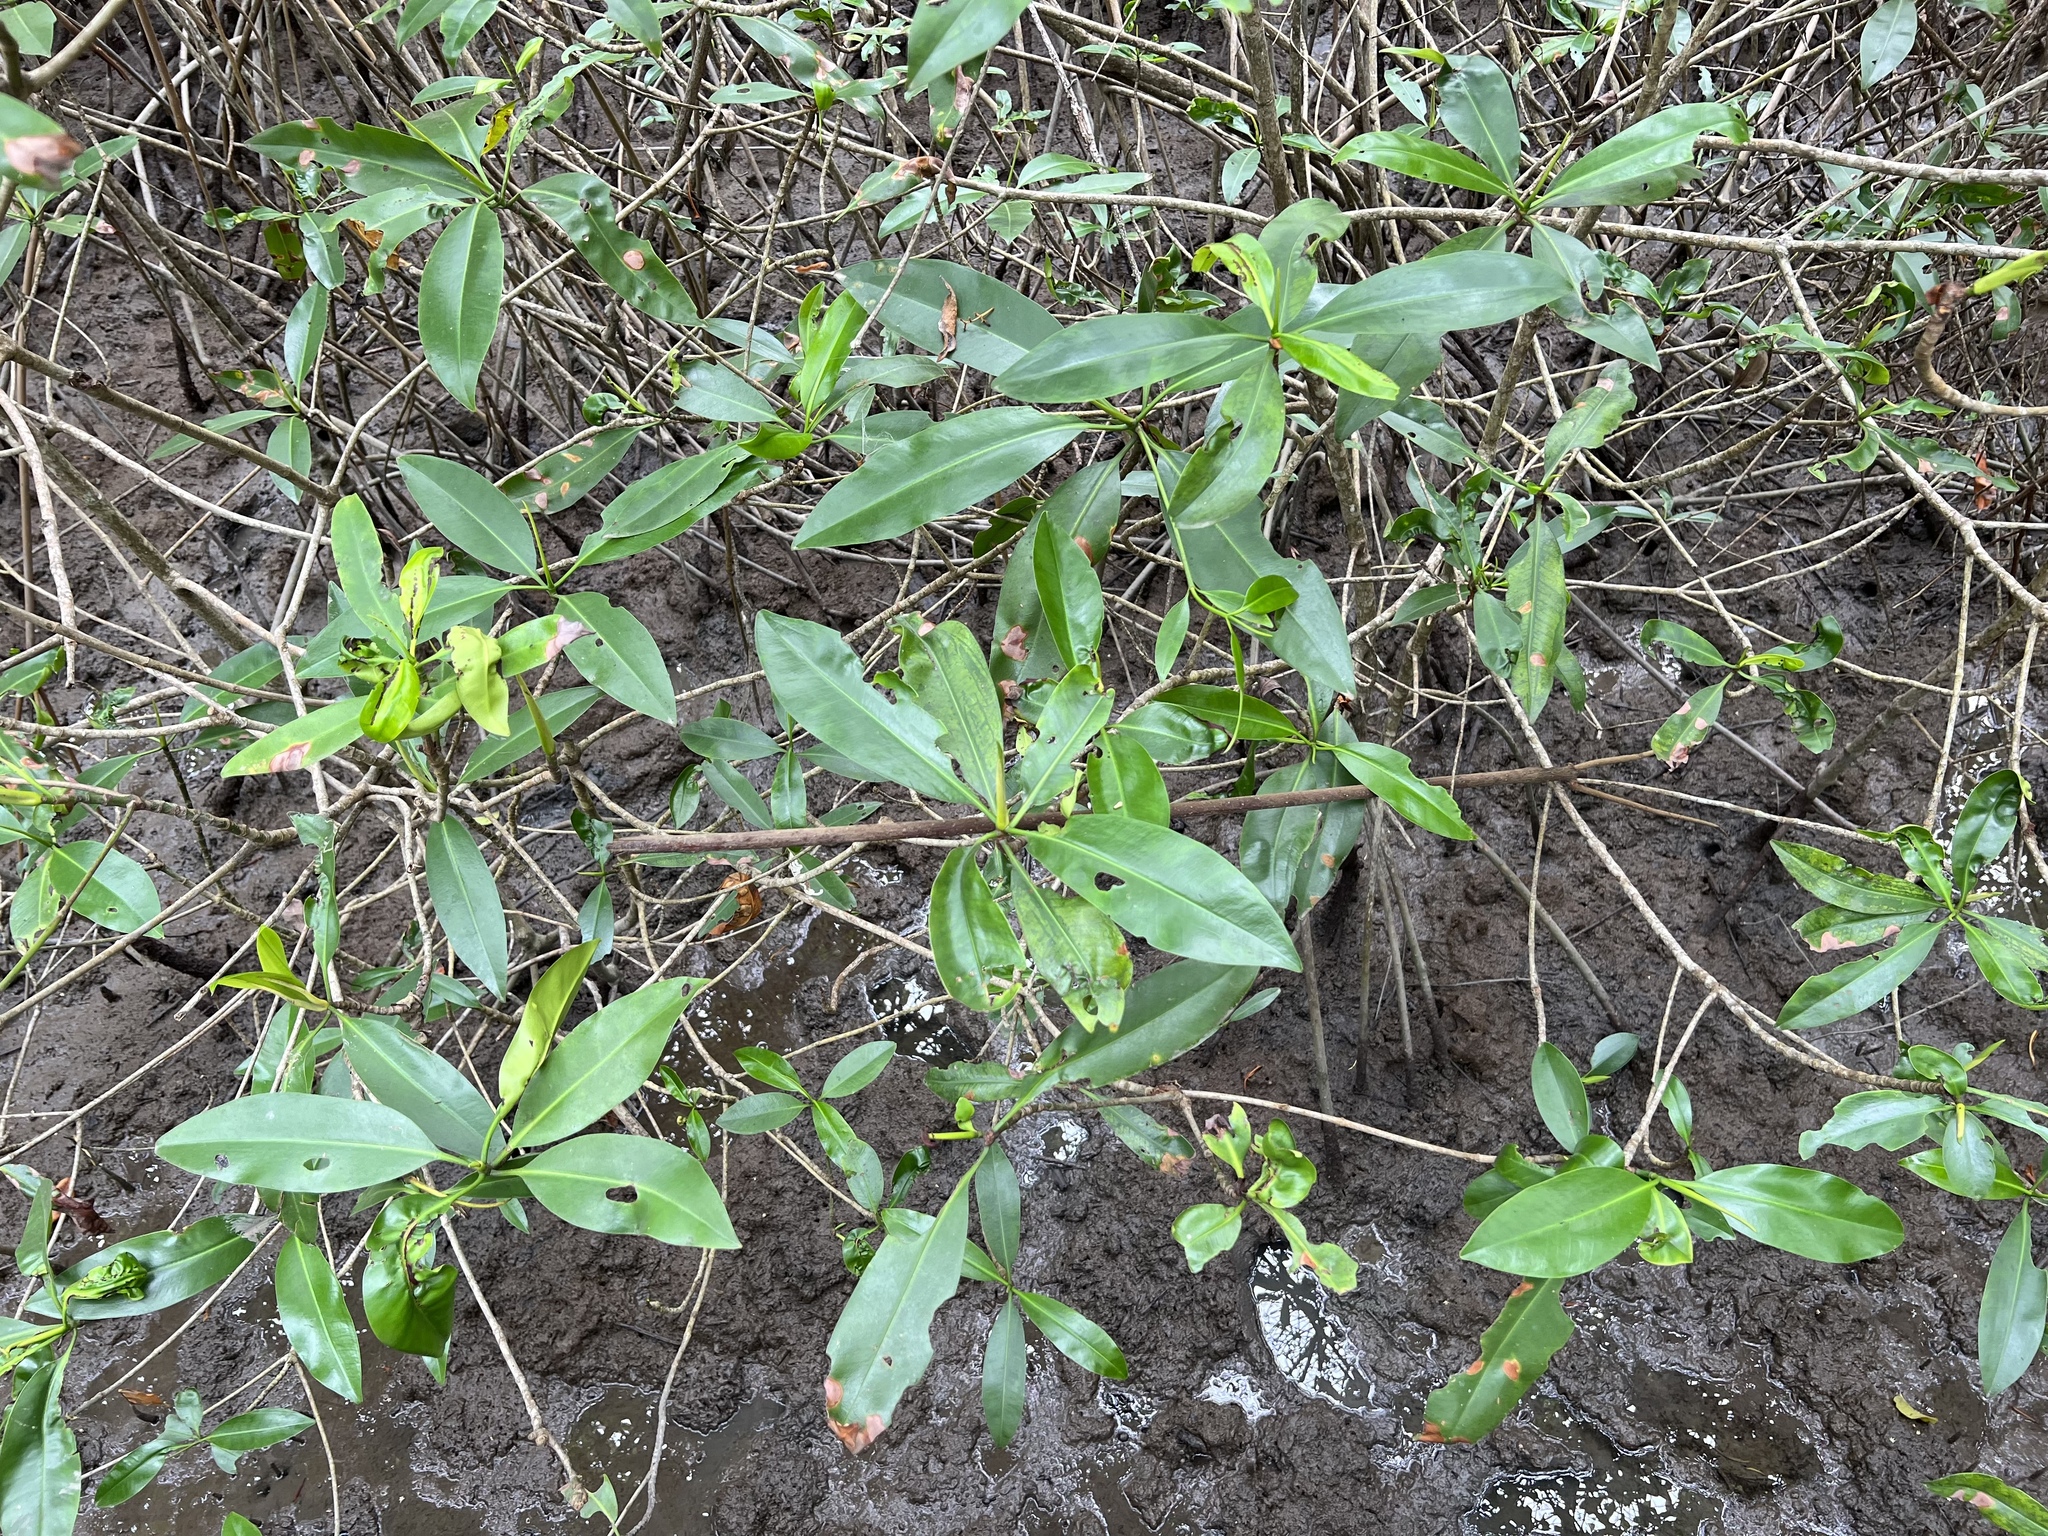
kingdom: Plantae
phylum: Tracheophyta
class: Magnoliopsida
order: Malpighiales
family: Rhizophoraceae
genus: Rhizophora
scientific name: Rhizophora mangle
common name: Red mangrove
